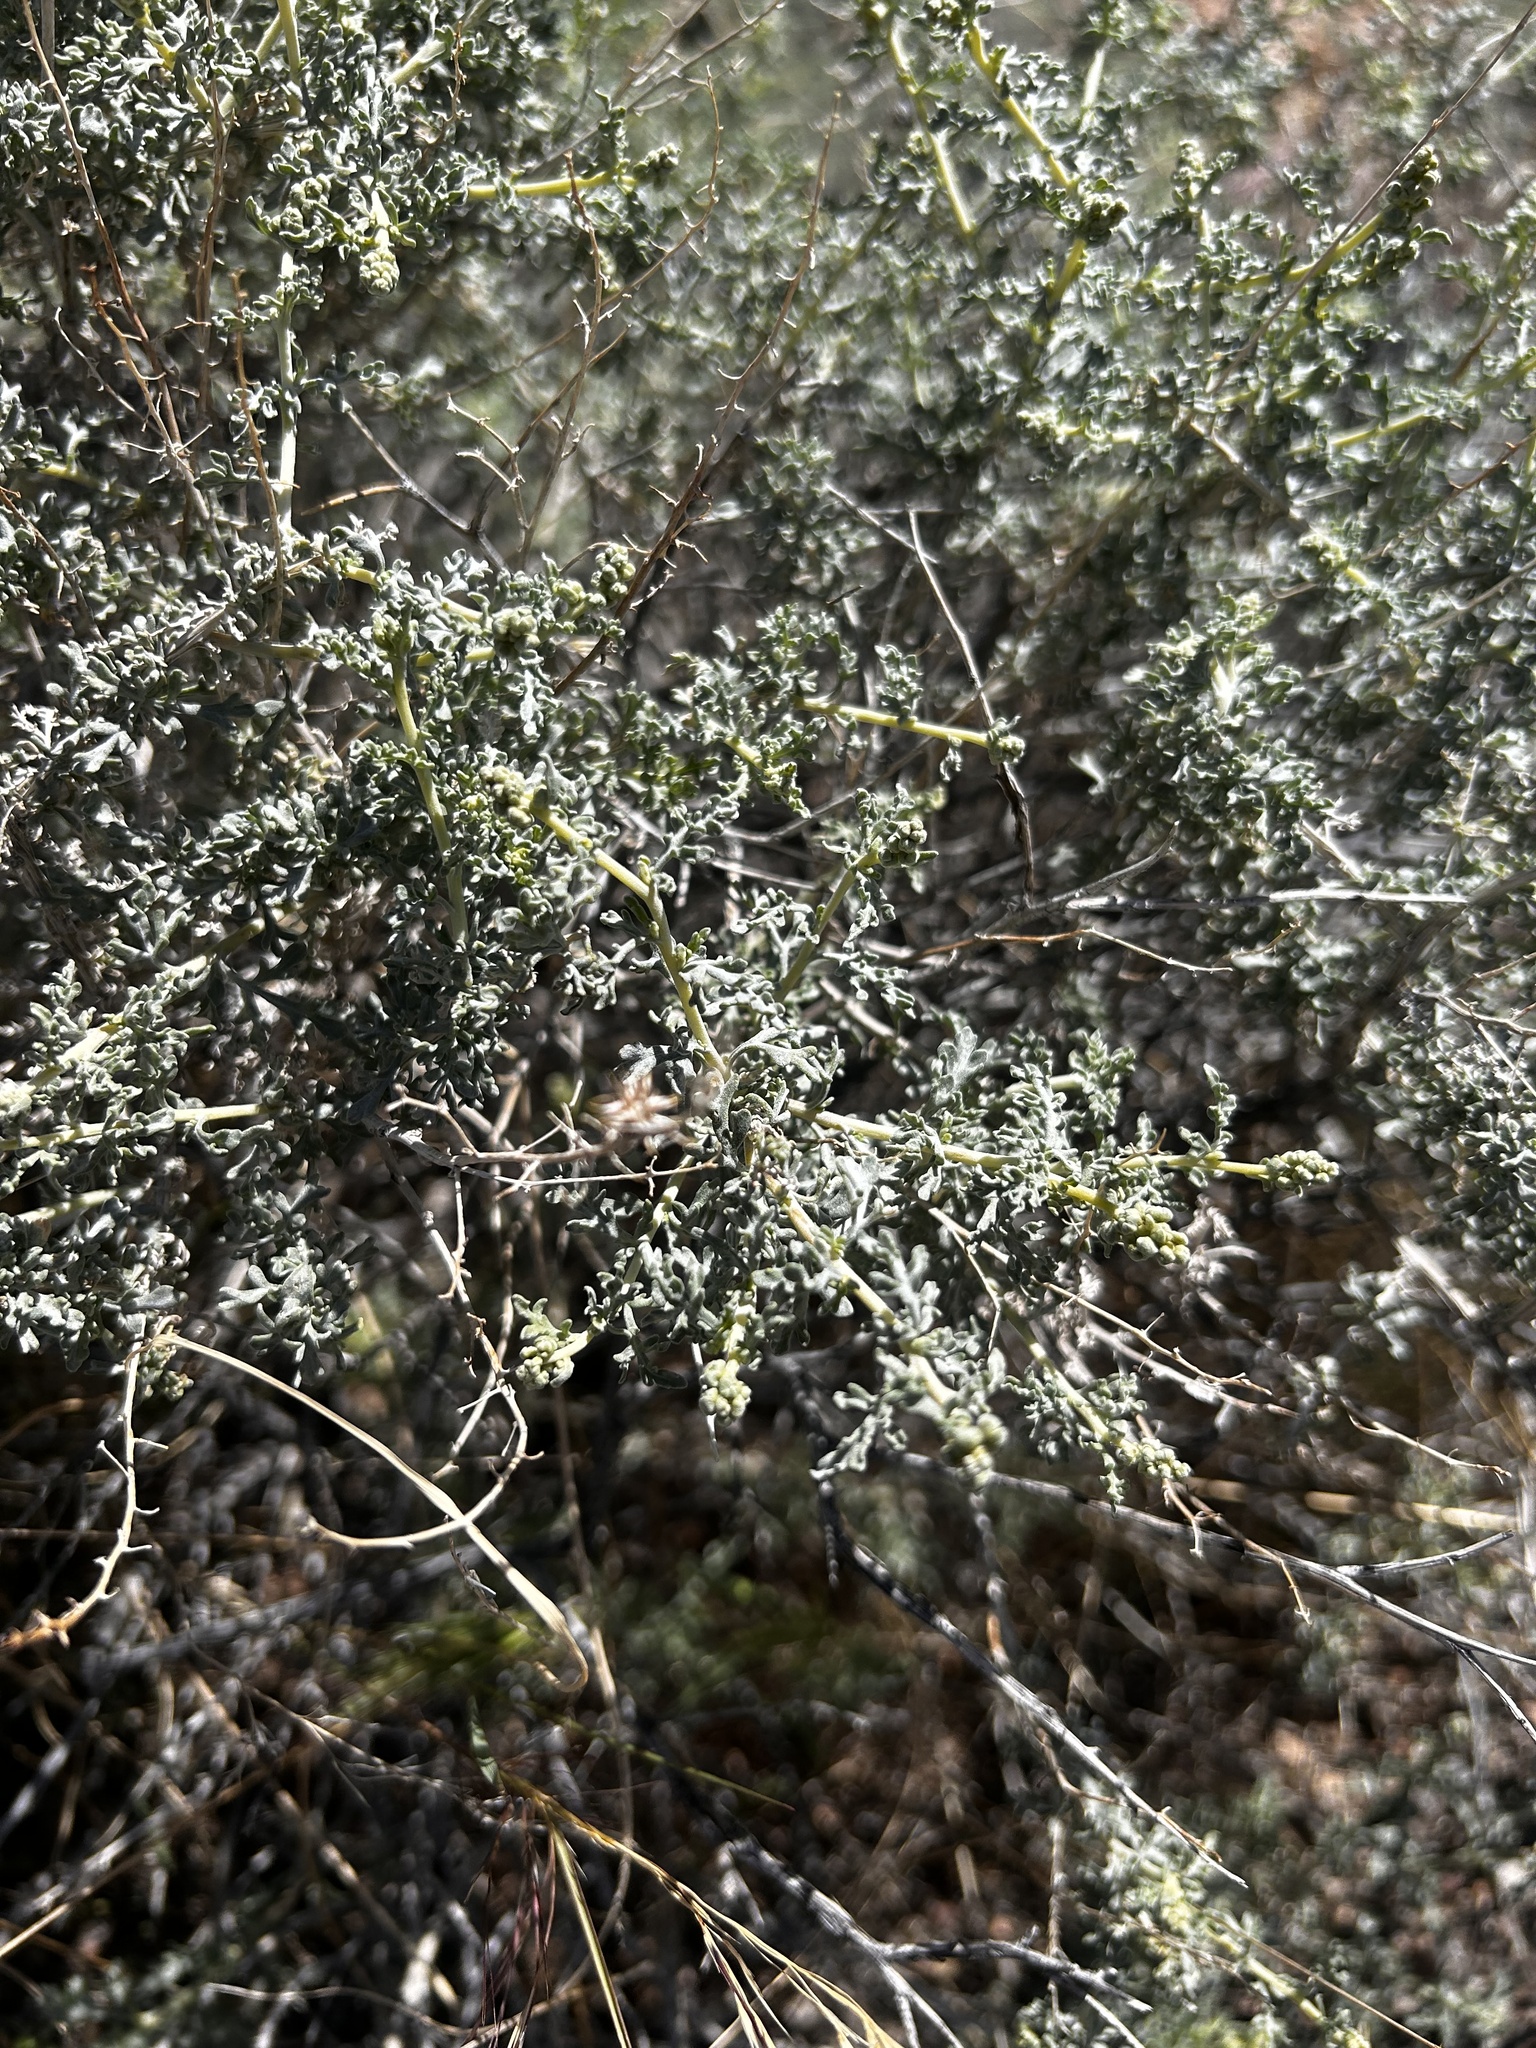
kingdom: Plantae
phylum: Tracheophyta
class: Magnoliopsida
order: Asterales
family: Asteraceae
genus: Ambrosia
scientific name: Ambrosia dumosa
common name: Bur-sage
